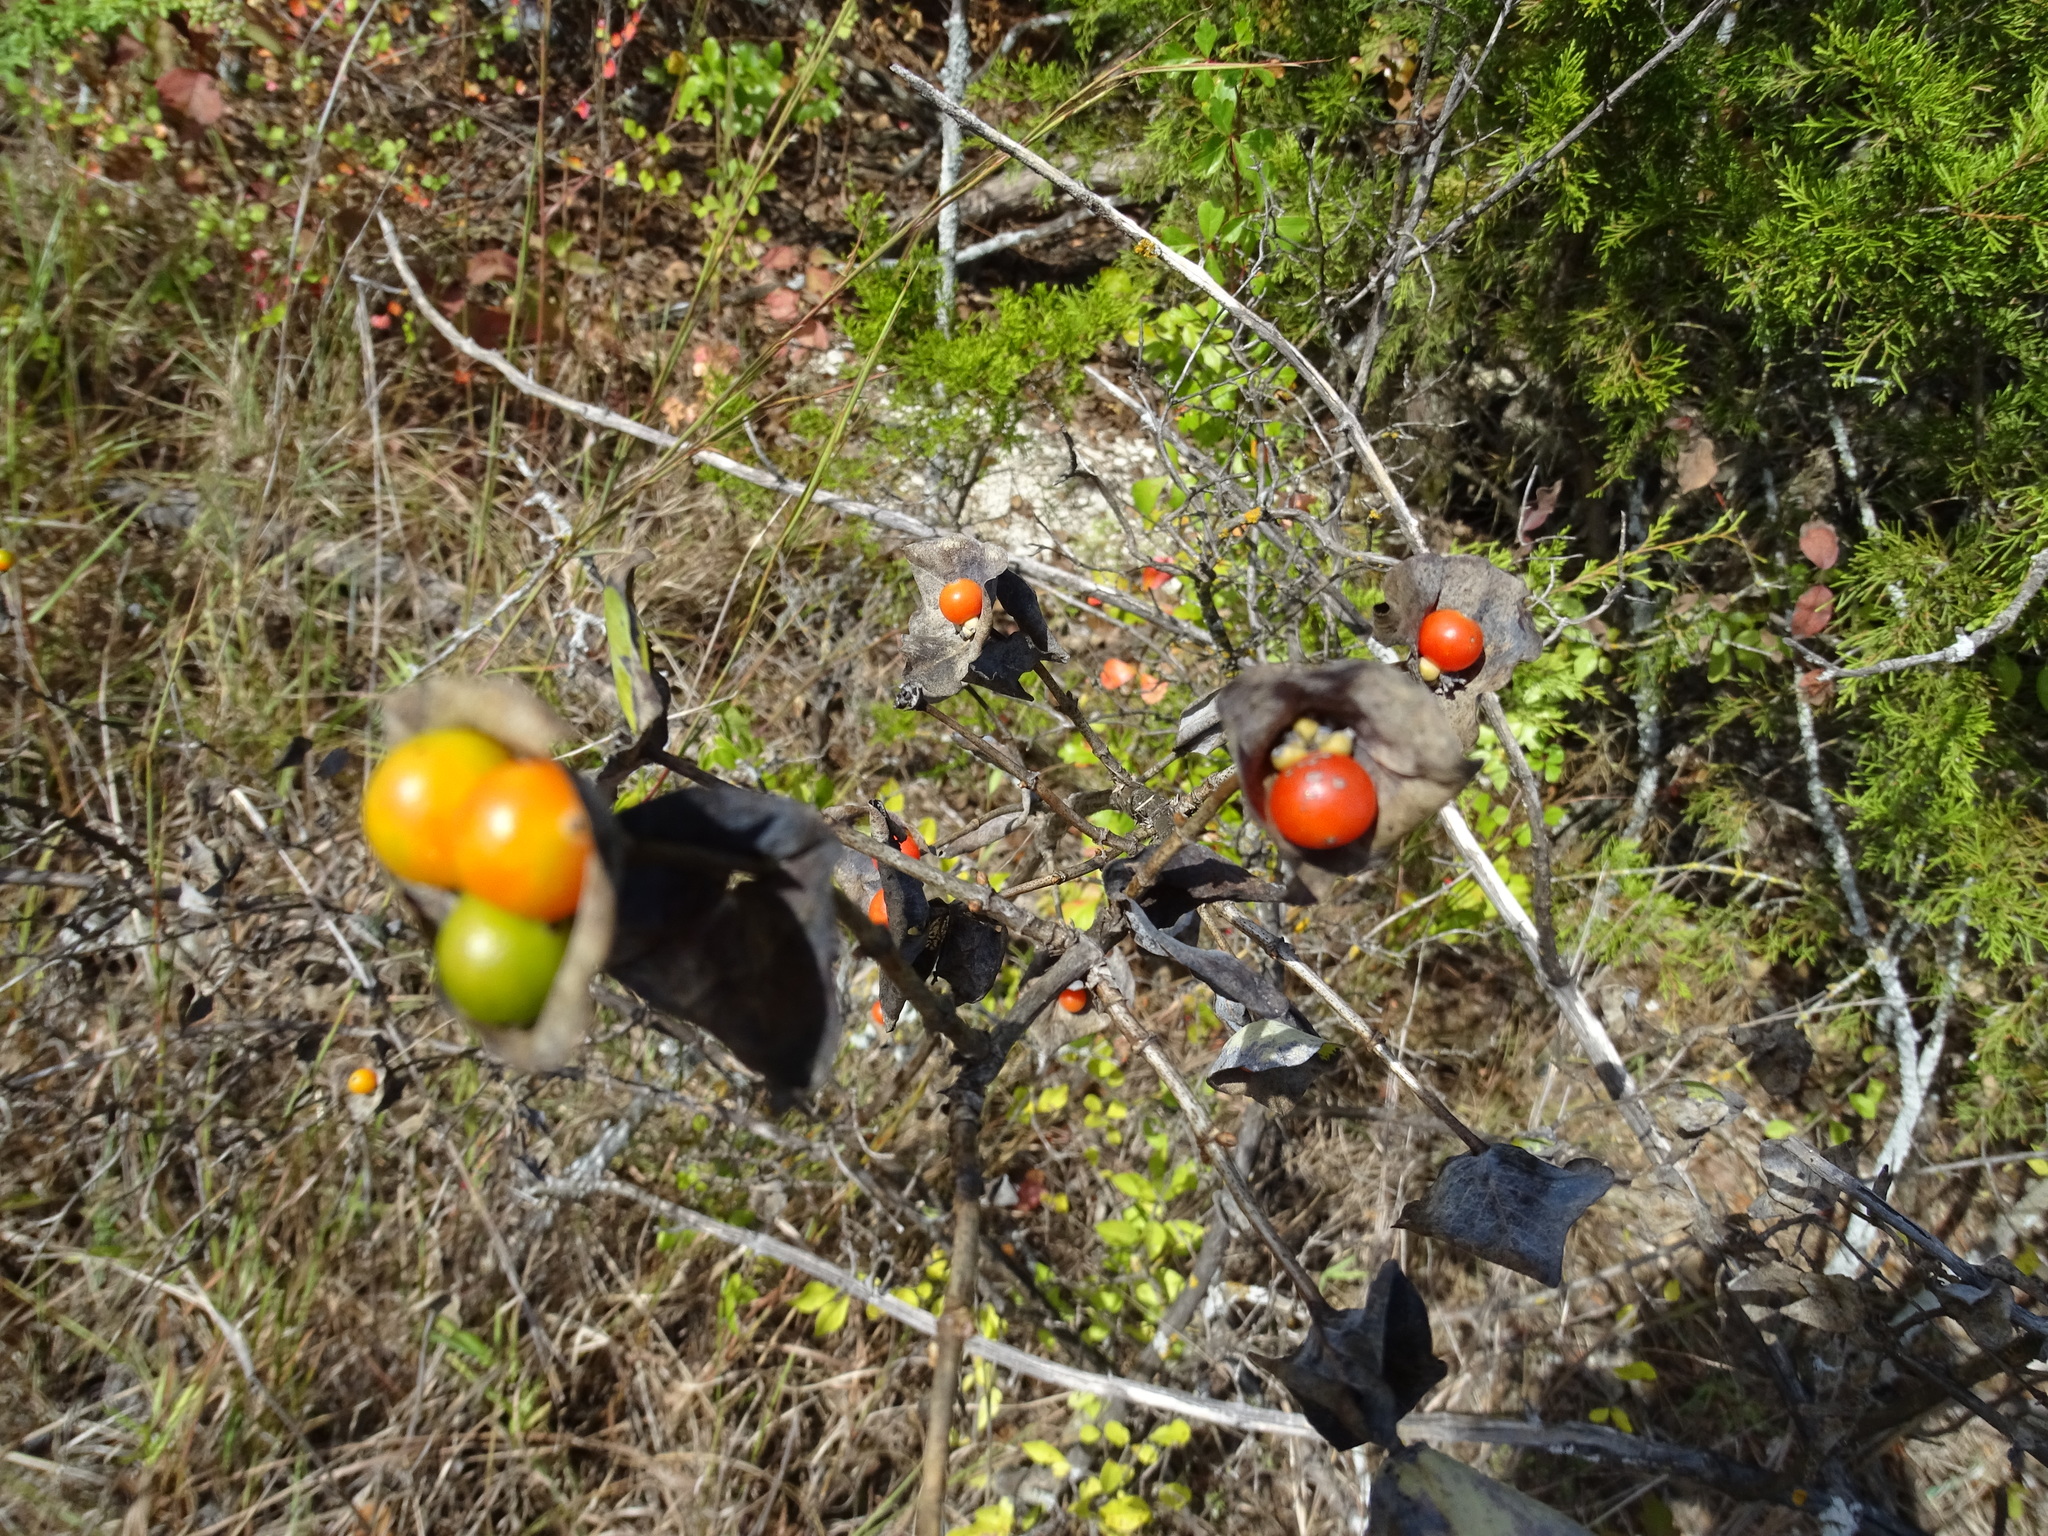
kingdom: Plantae
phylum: Tracheophyta
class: Magnoliopsida
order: Dipsacales
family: Caprifoliaceae
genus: Lonicera
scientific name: Lonicera albiflora
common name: White honeysuckle
